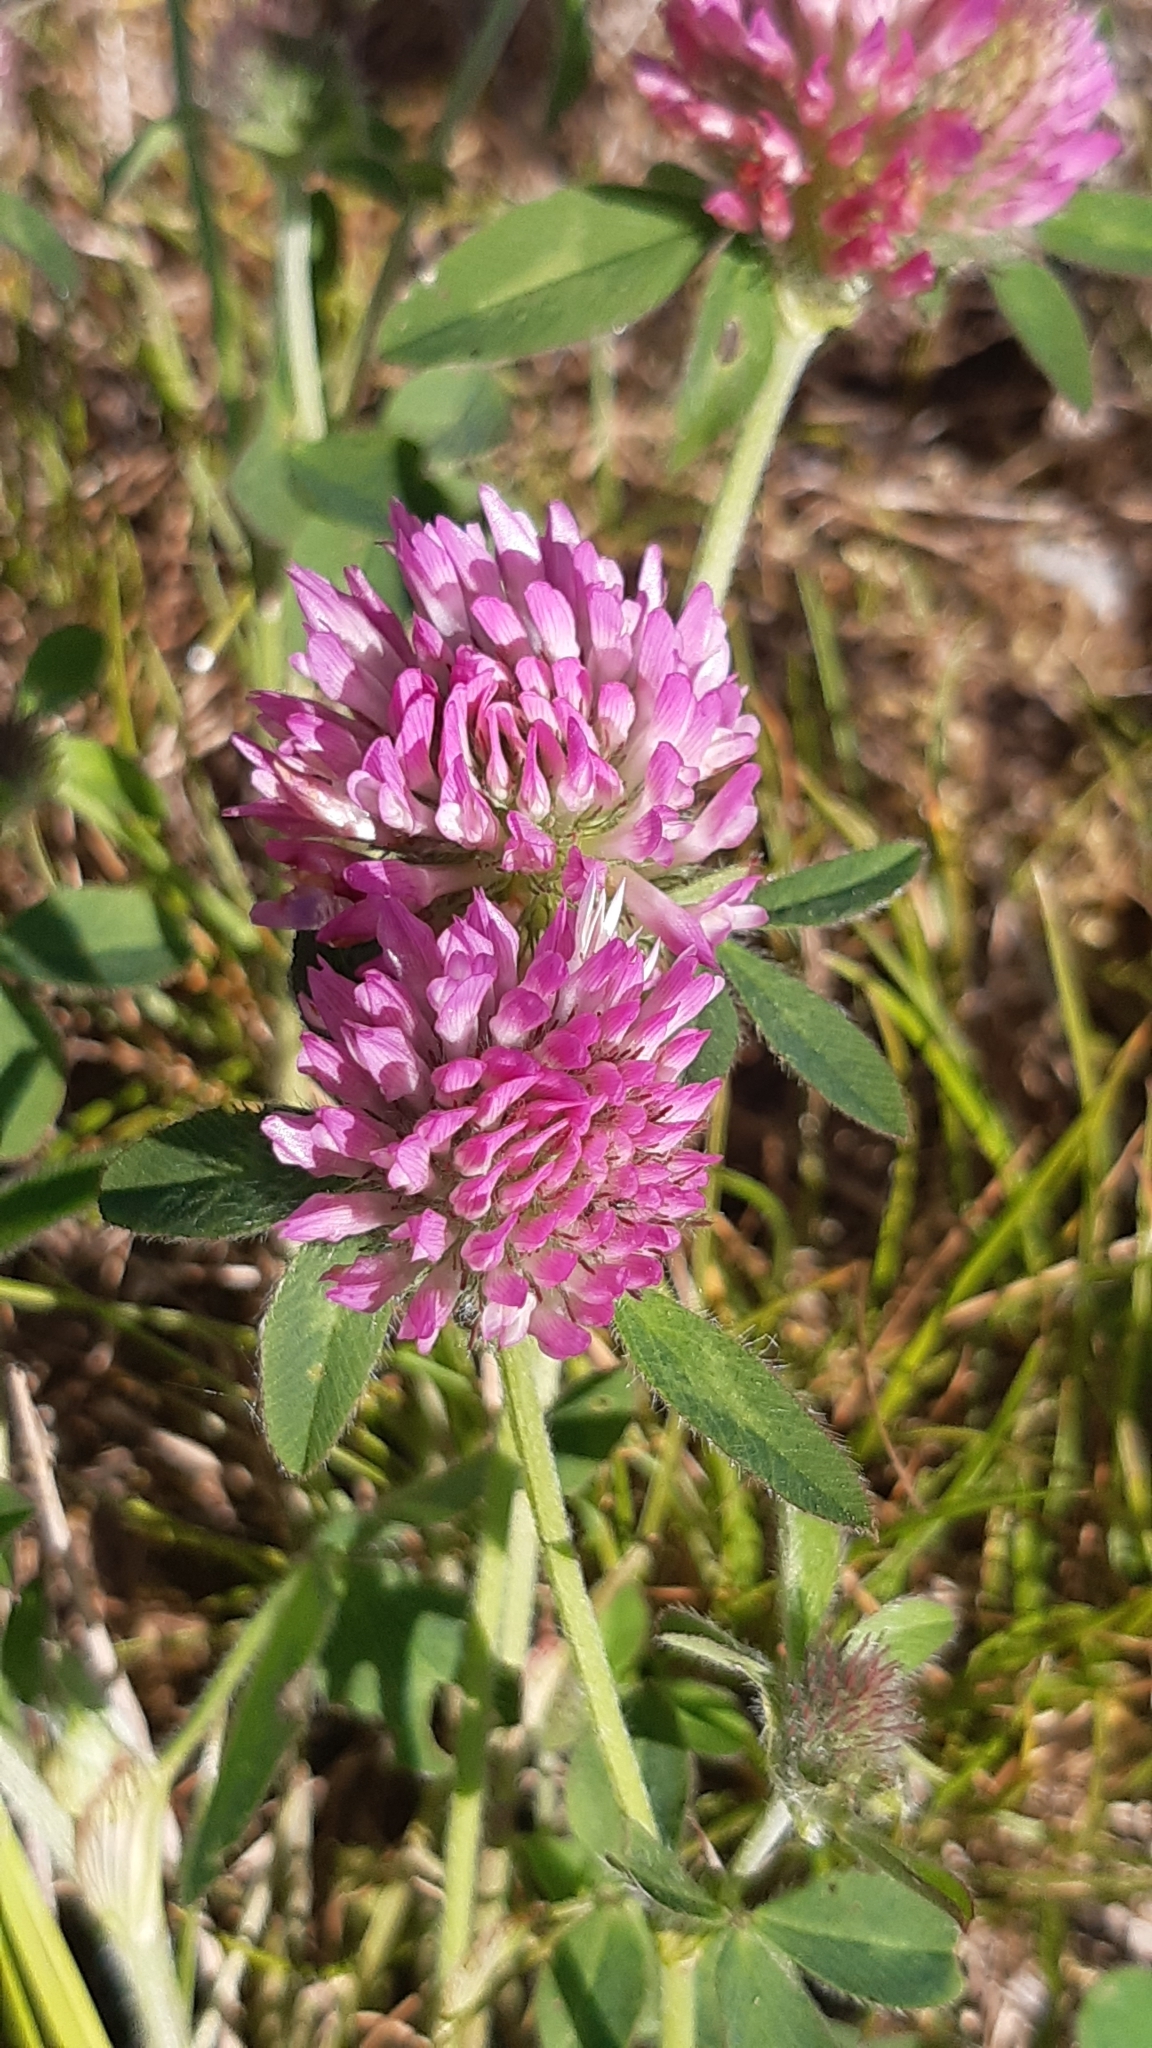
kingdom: Plantae
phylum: Tracheophyta
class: Magnoliopsida
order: Fabales
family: Fabaceae
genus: Trifolium
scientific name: Trifolium pratense
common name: Red clover
